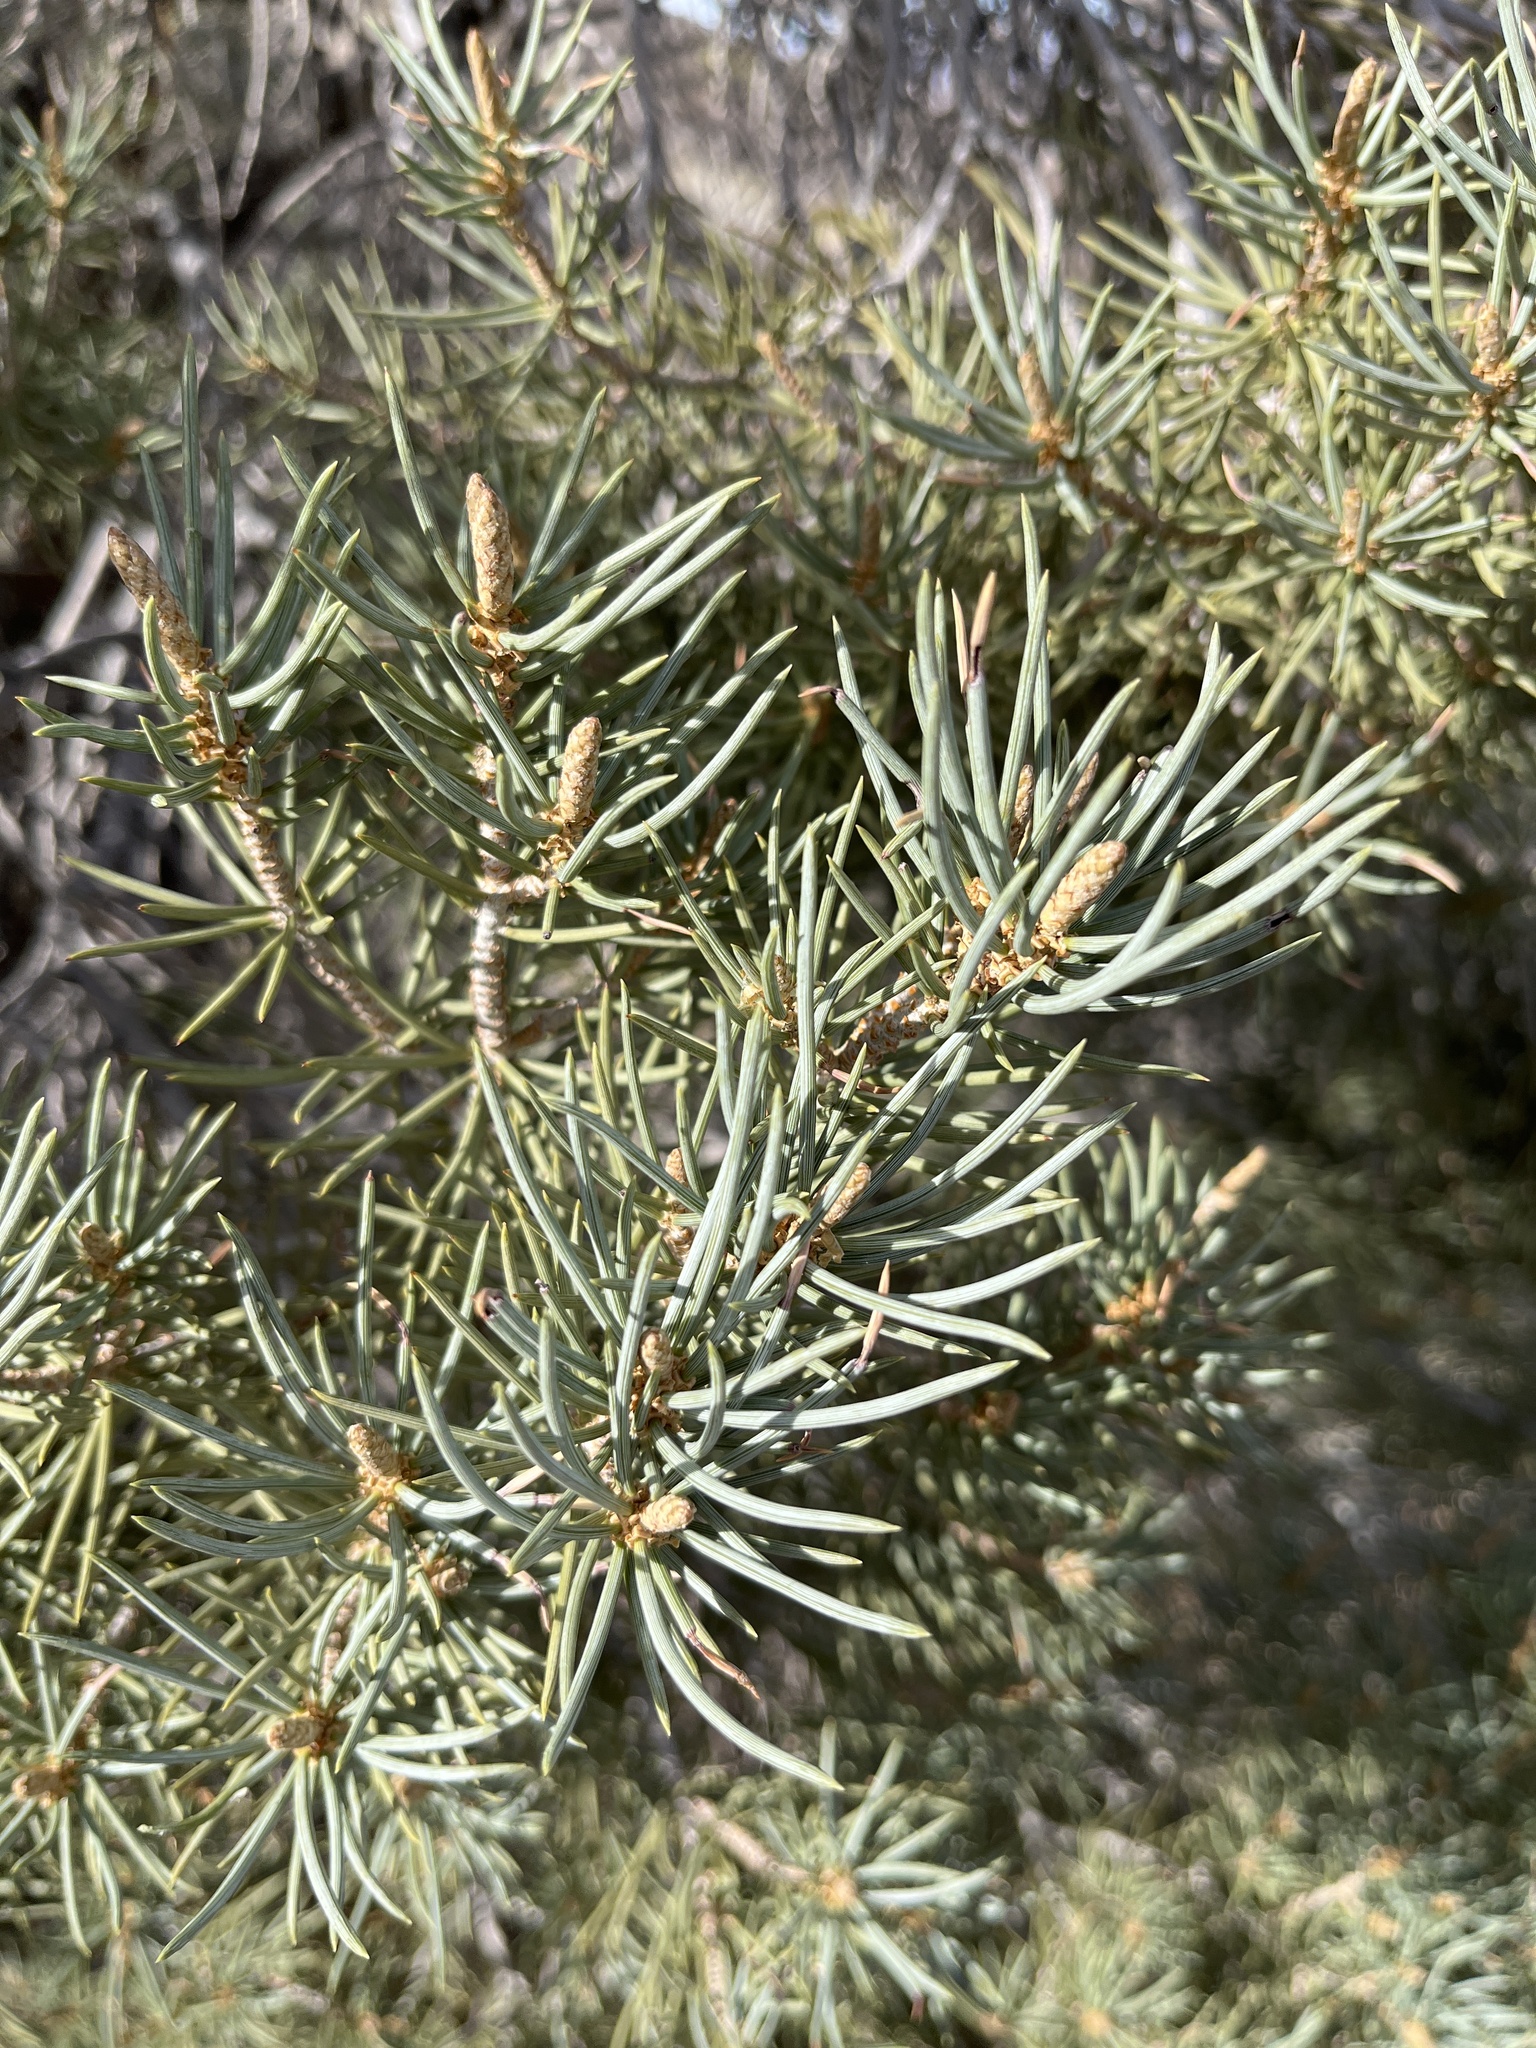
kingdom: Plantae
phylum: Tracheophyta
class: Pinopsida
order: Pinales
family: Pinaceae
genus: Pinus
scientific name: Pinus monophylla
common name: One-leaved nut pine
